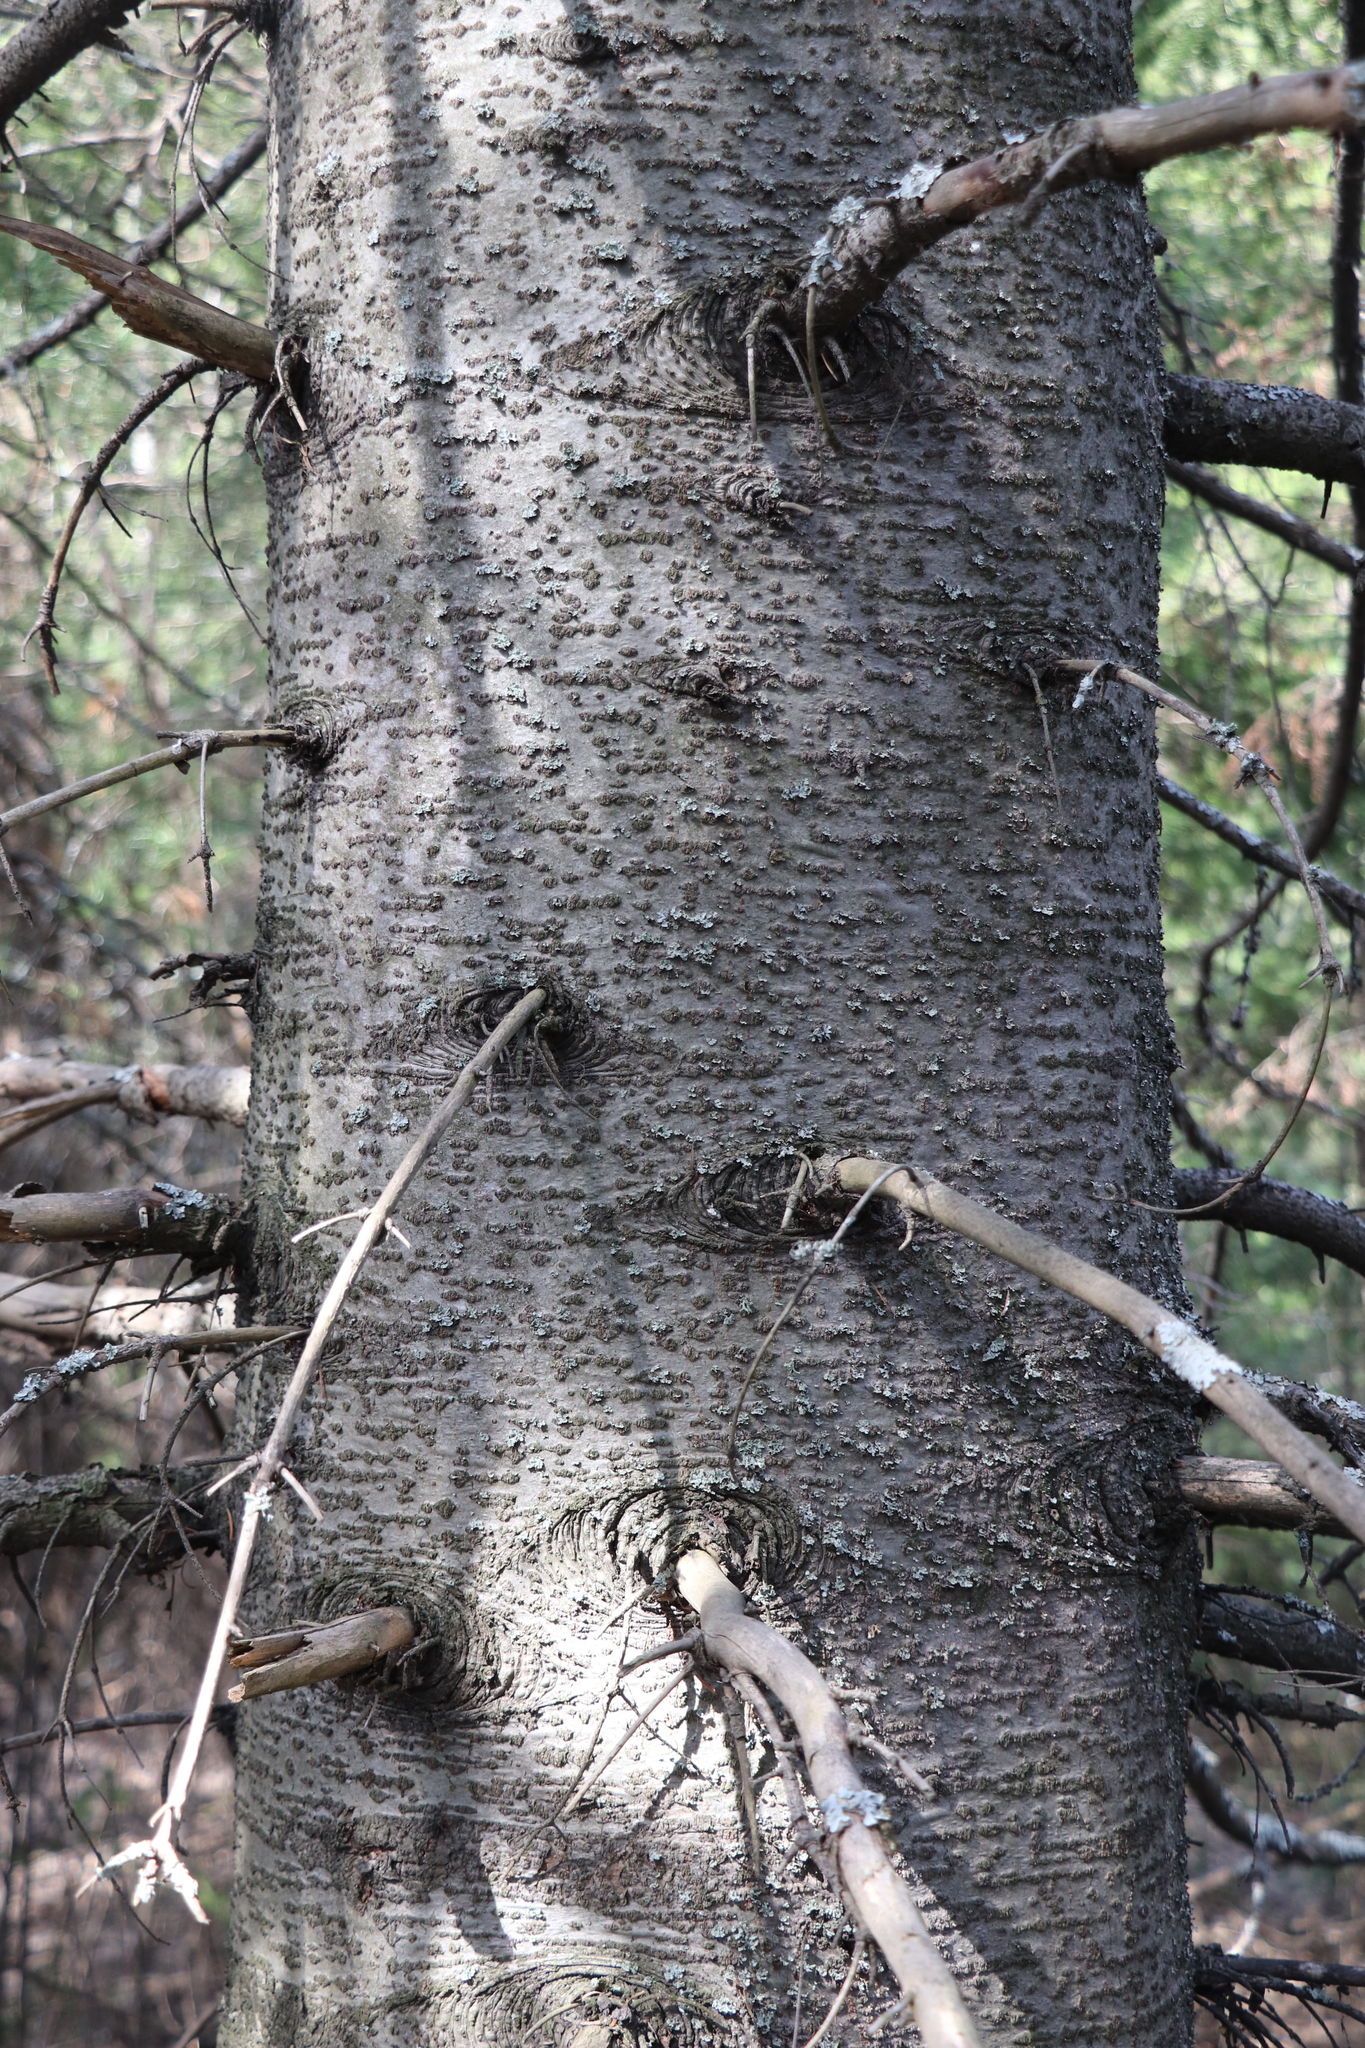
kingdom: Plantae
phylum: Tracheophyta
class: Pinopsida
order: Pinales
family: Pinaceae
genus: Abies
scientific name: Abies sibirica
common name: Siberian fir
